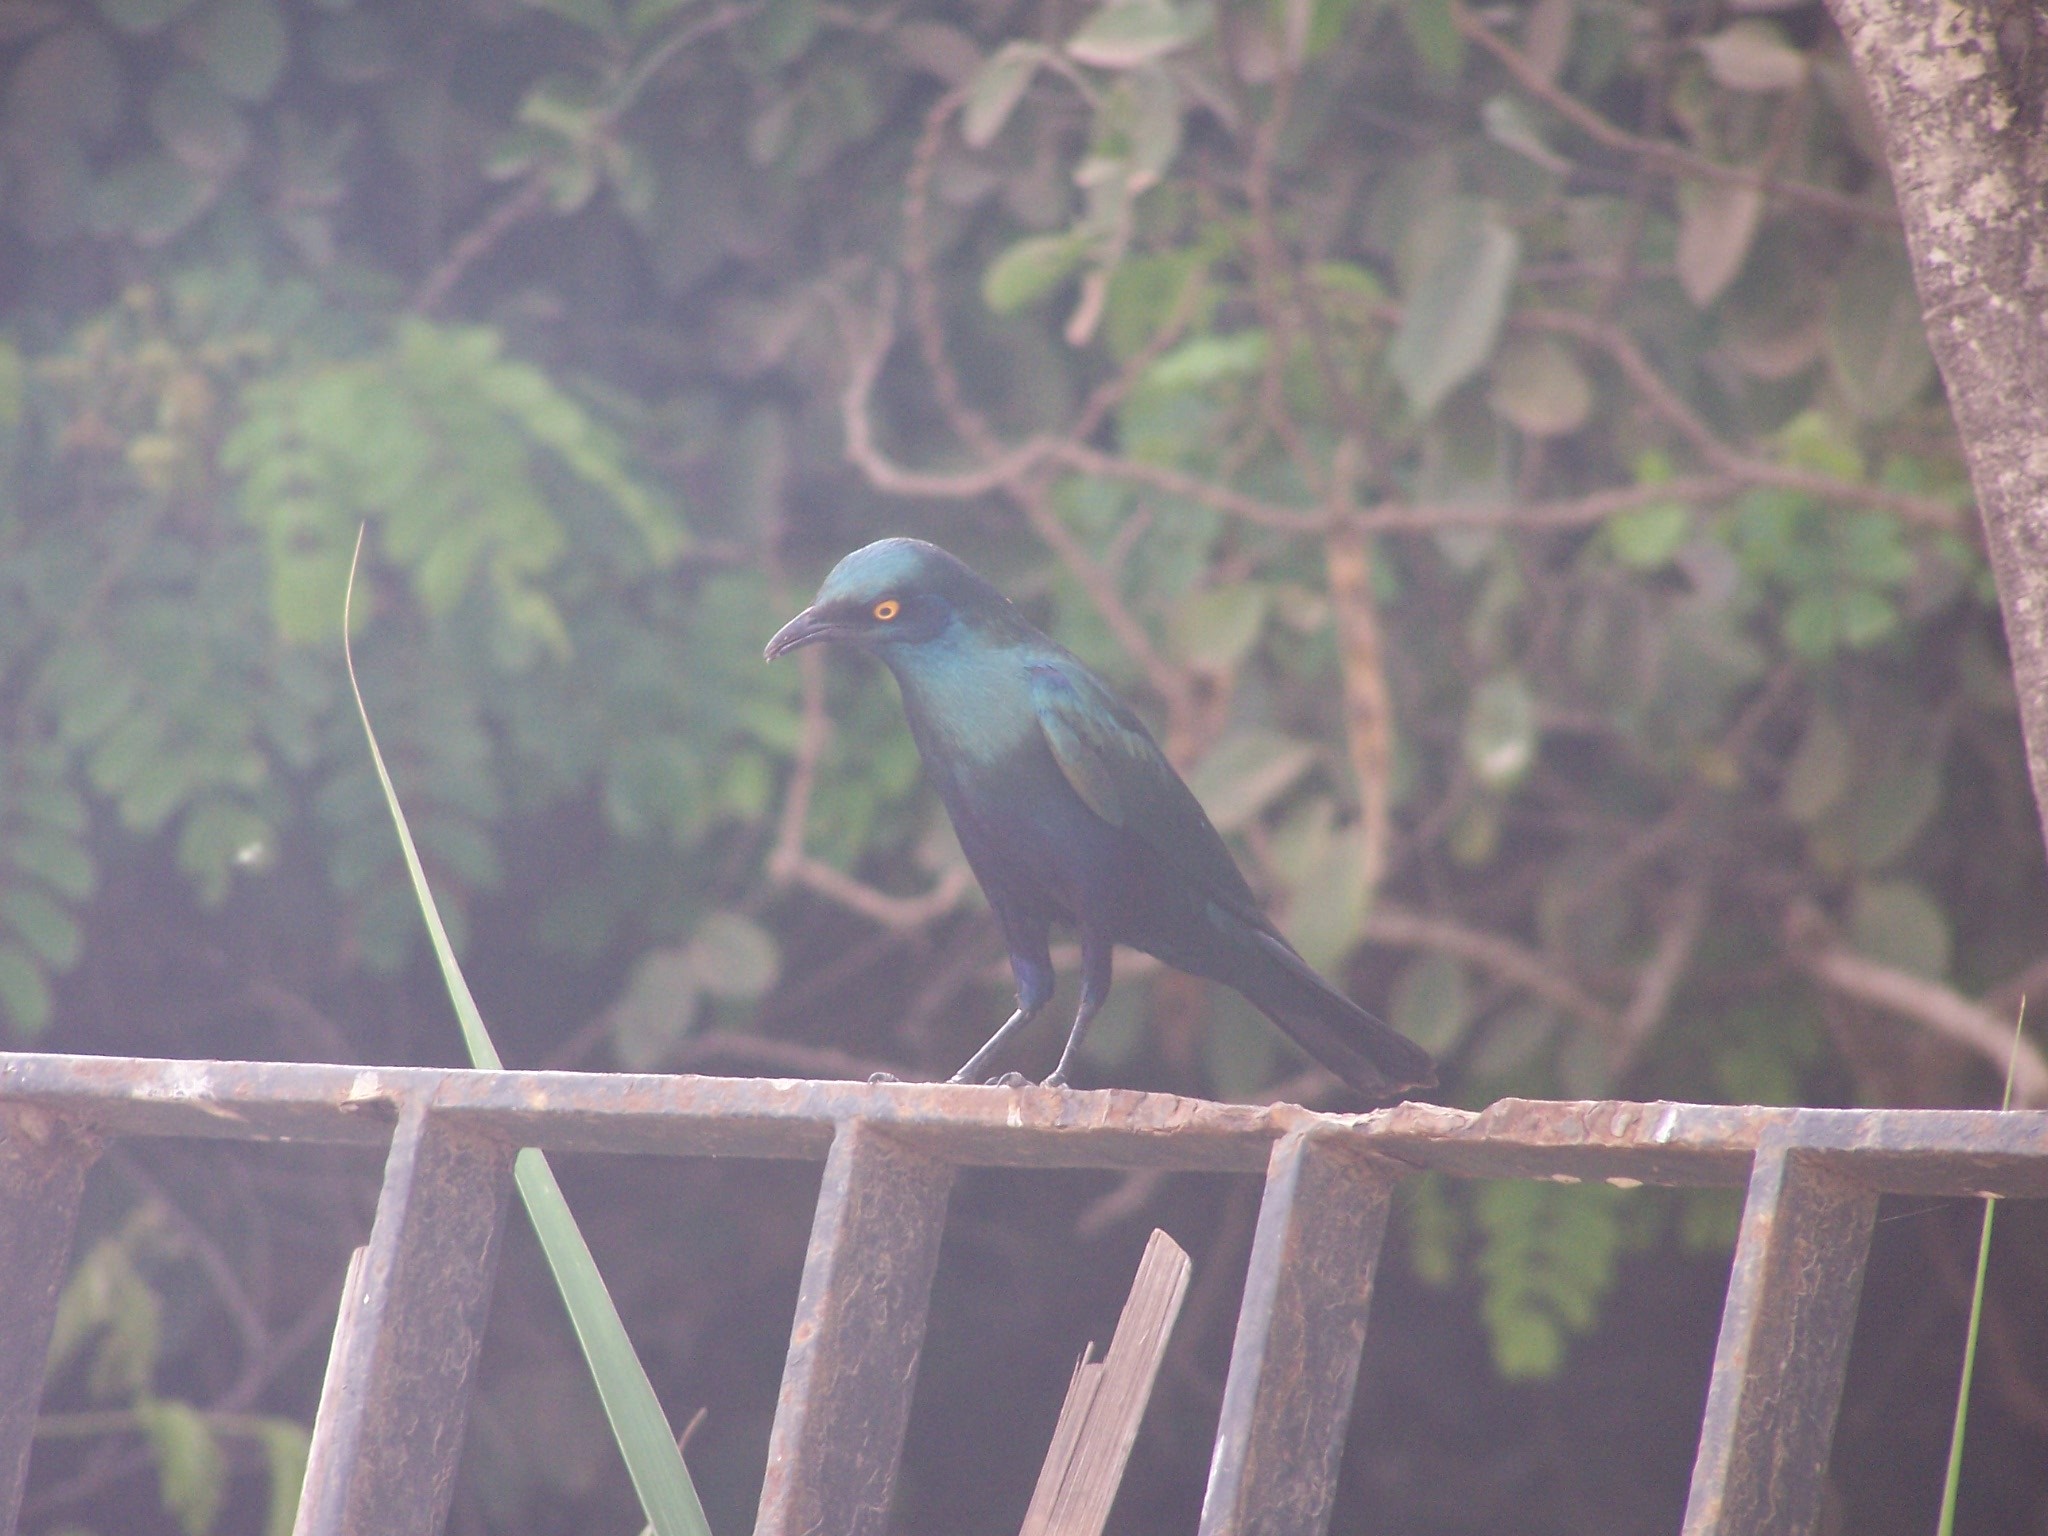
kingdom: Animalia
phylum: Chordata
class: Aves
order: Passeriformes
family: Sturnidae
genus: Lamprotornis
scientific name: Lamprotornis chalybaeus
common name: Greater blue-eared starling
